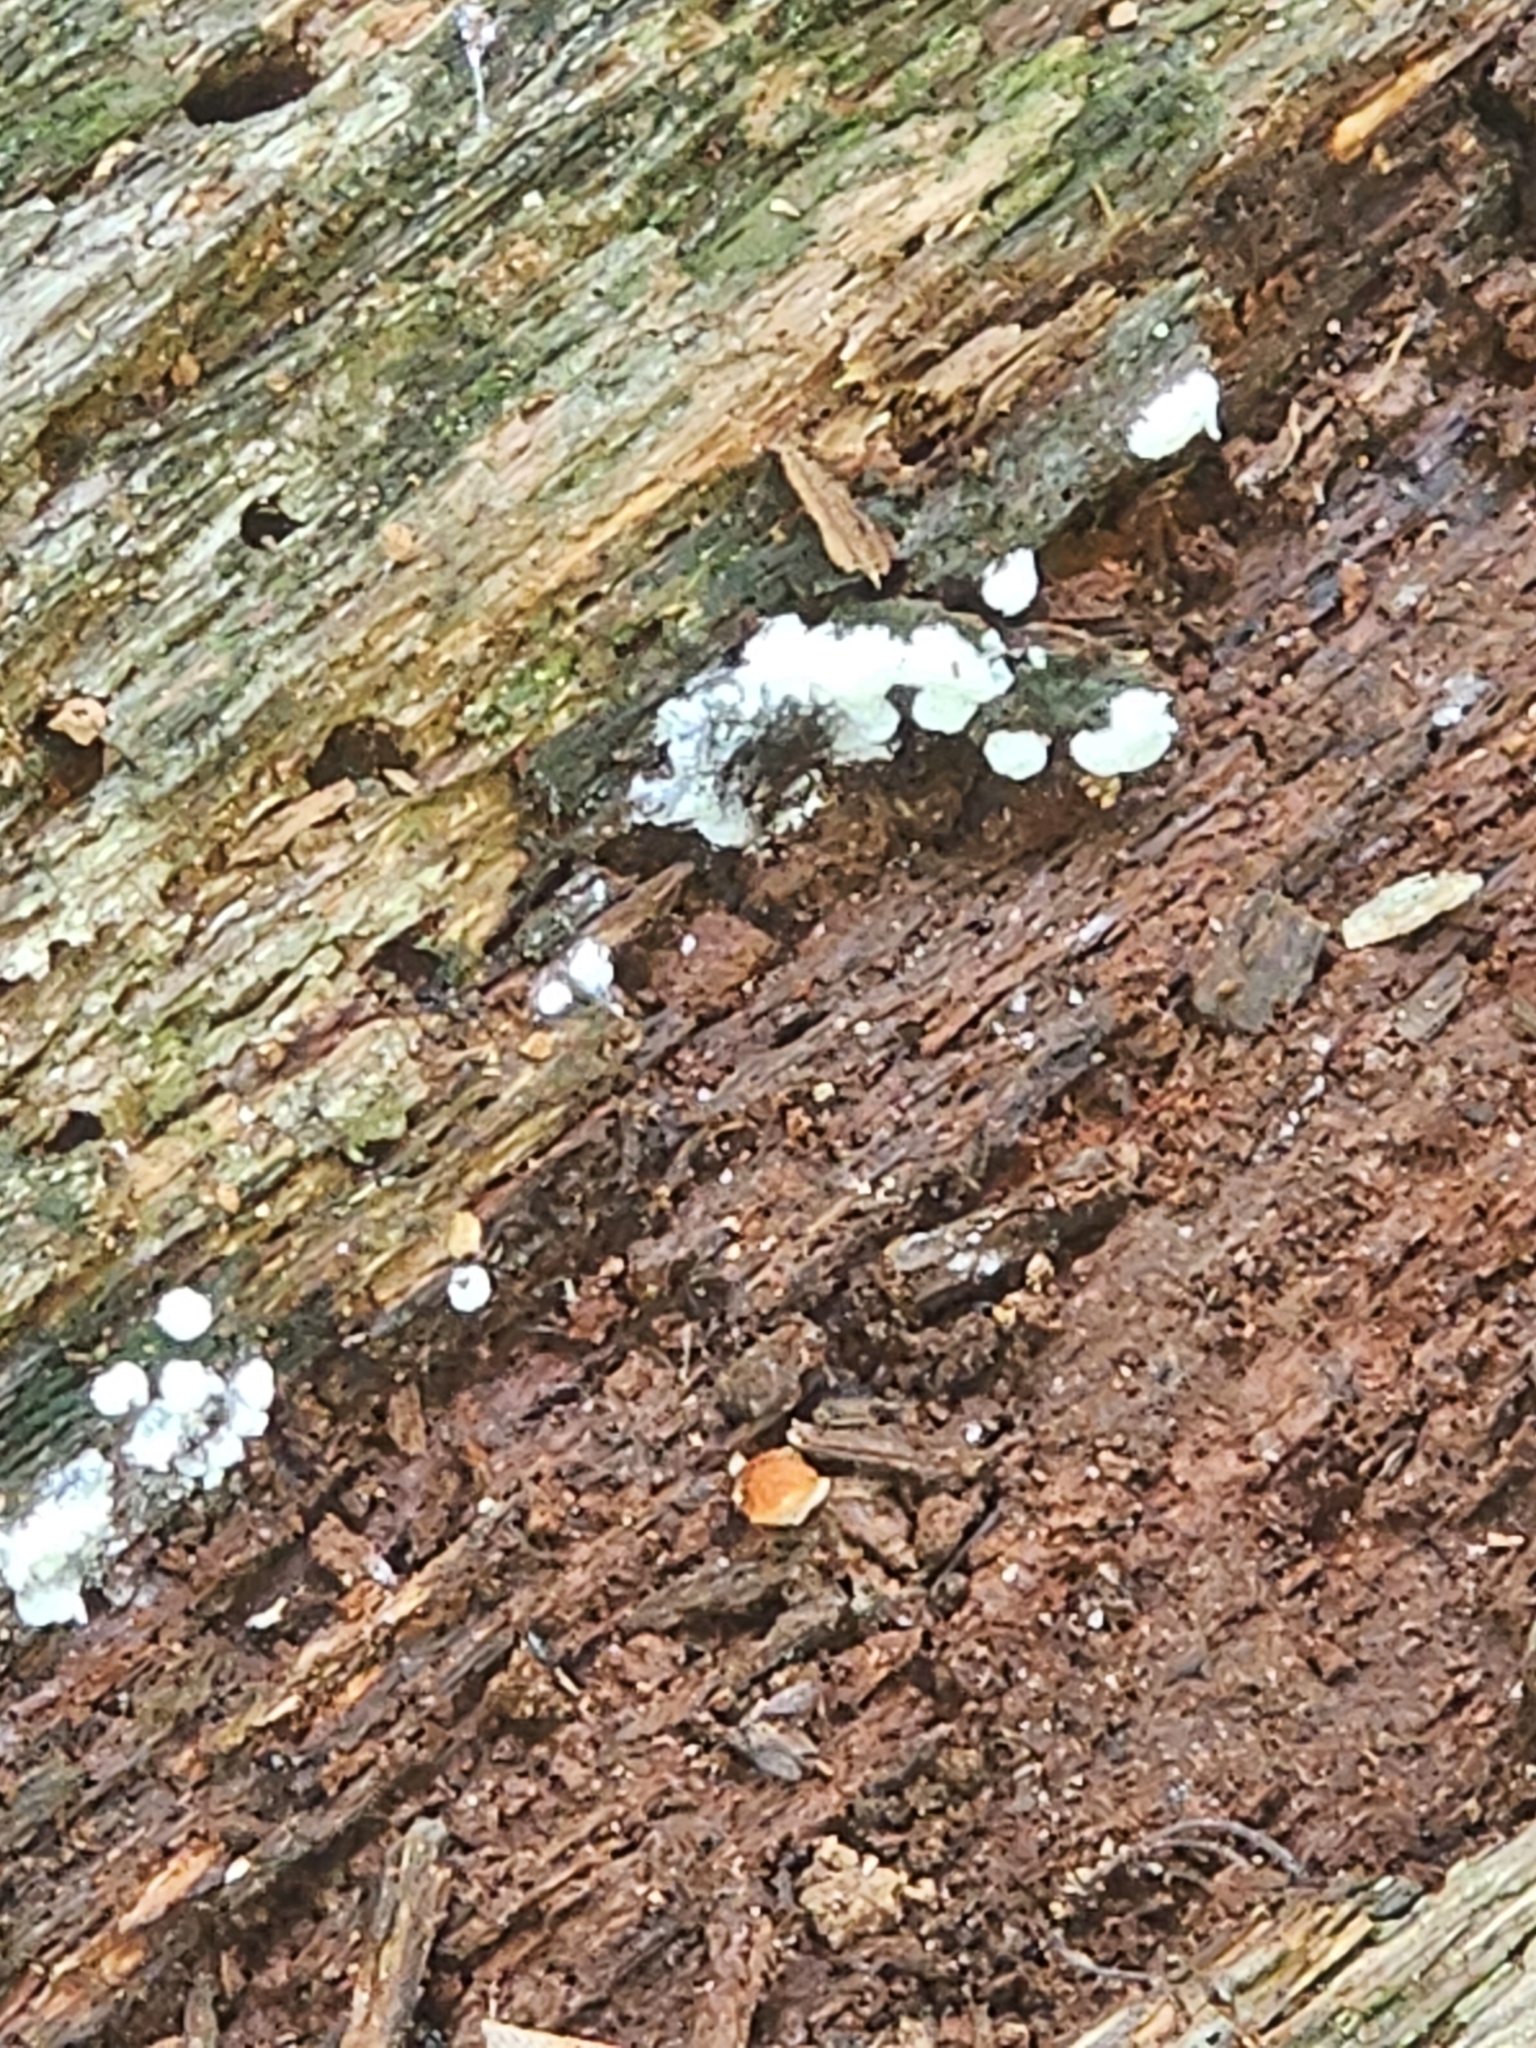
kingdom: Protozoa
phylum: Mycetozoa
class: Protosteliomycetes
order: Ceratiomyxales
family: Ceratiomyxaceae
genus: Ceratiomyxa
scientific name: Ceratiomyxa fruticulosa
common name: Honeycomb coral slime mold
